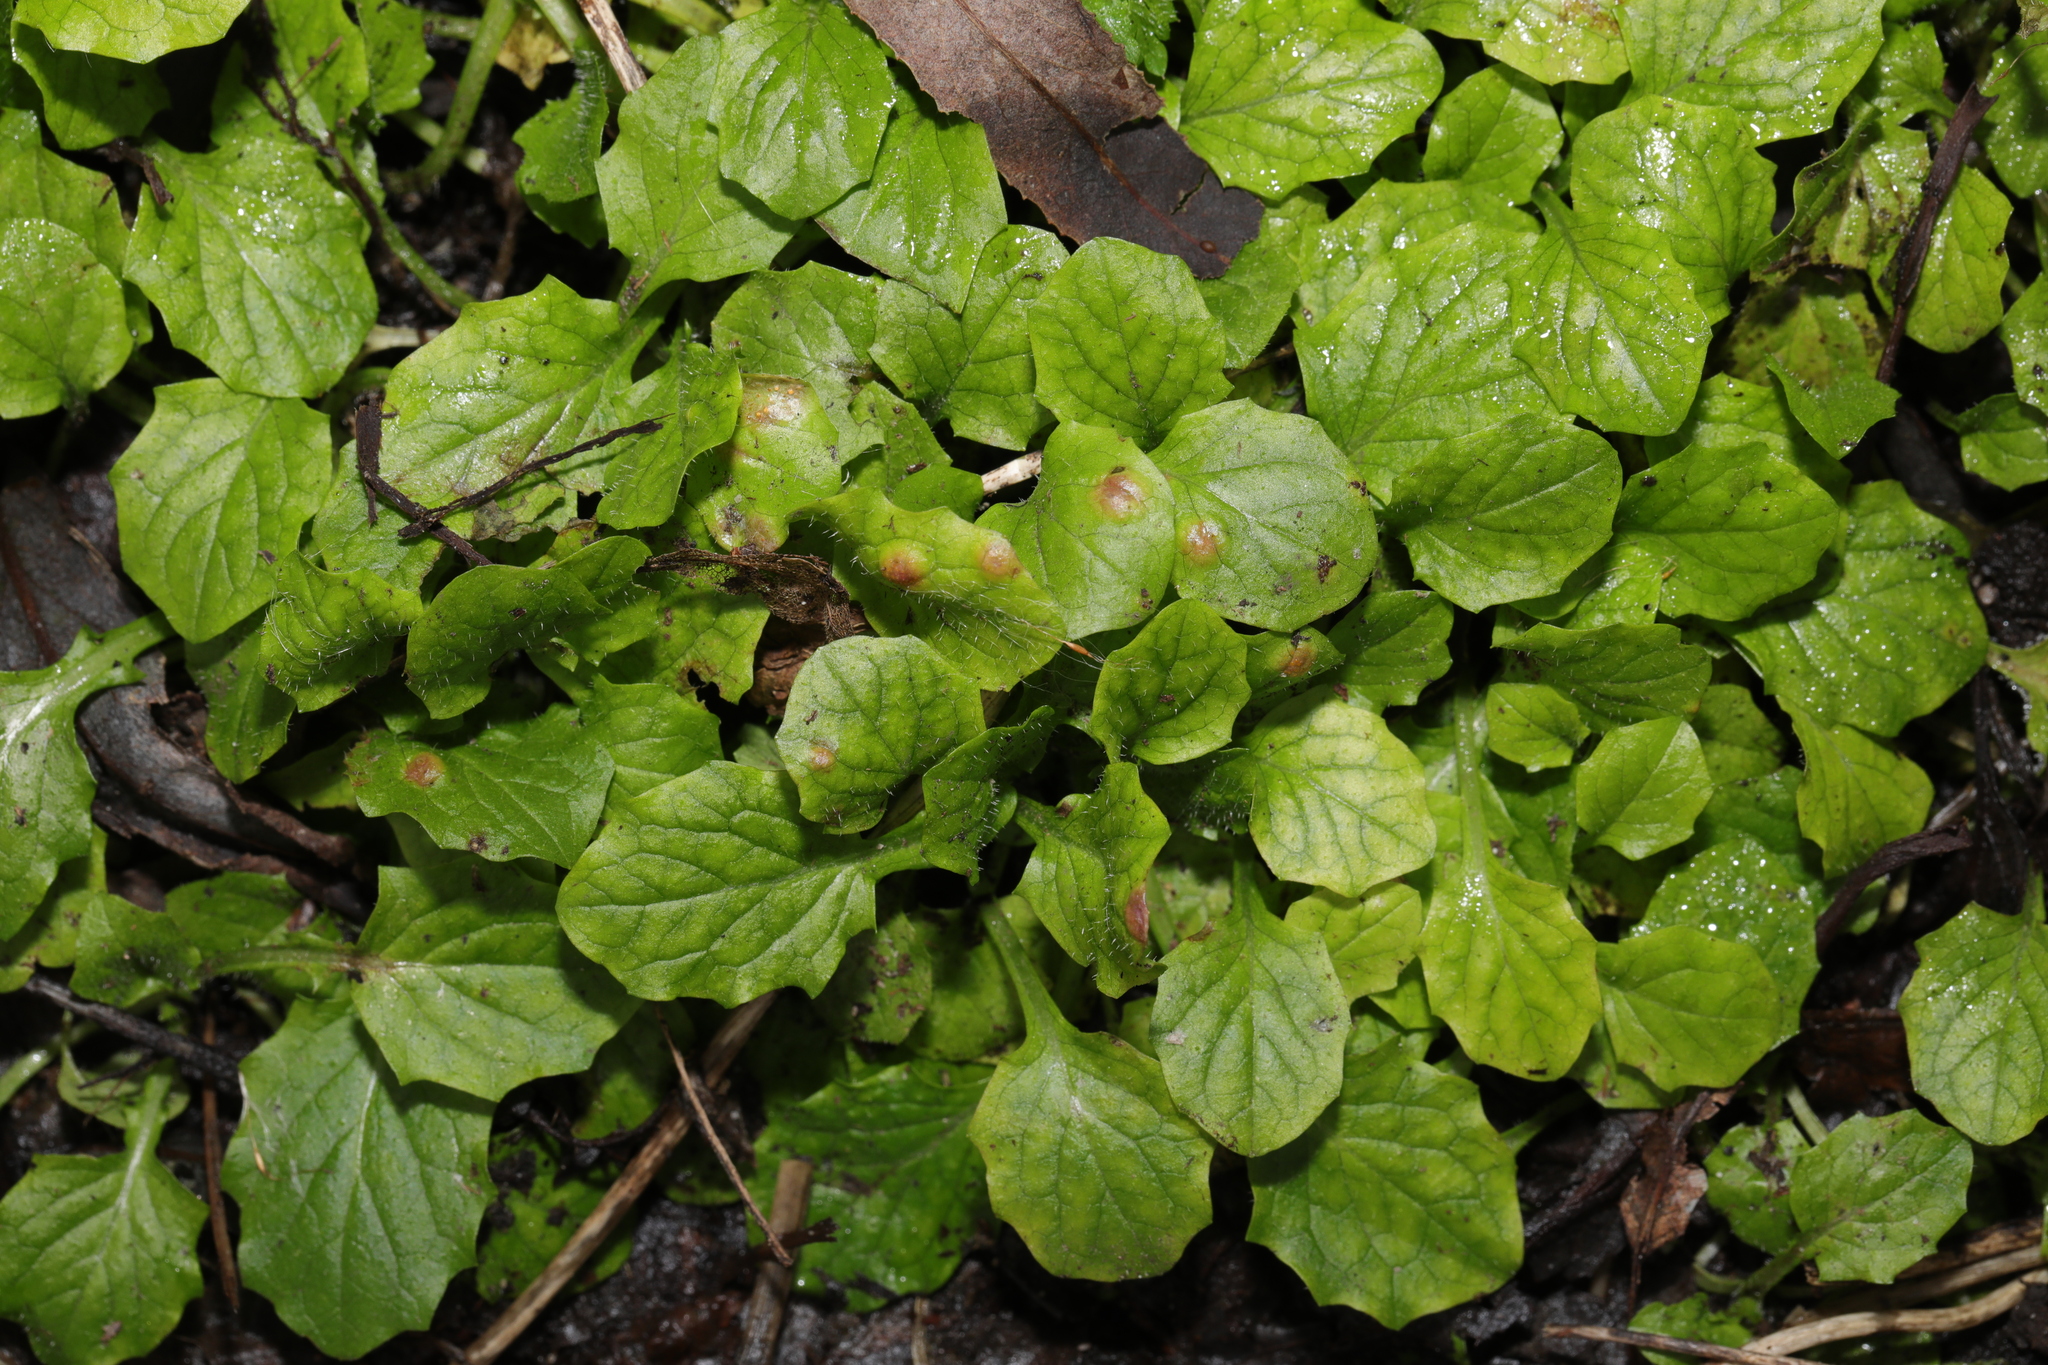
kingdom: Plantae
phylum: Tracheophyta
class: Magnoliopsida
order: Asterales
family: Asteraceae
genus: Lapsana
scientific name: Lapsana communis
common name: Nipplewort
